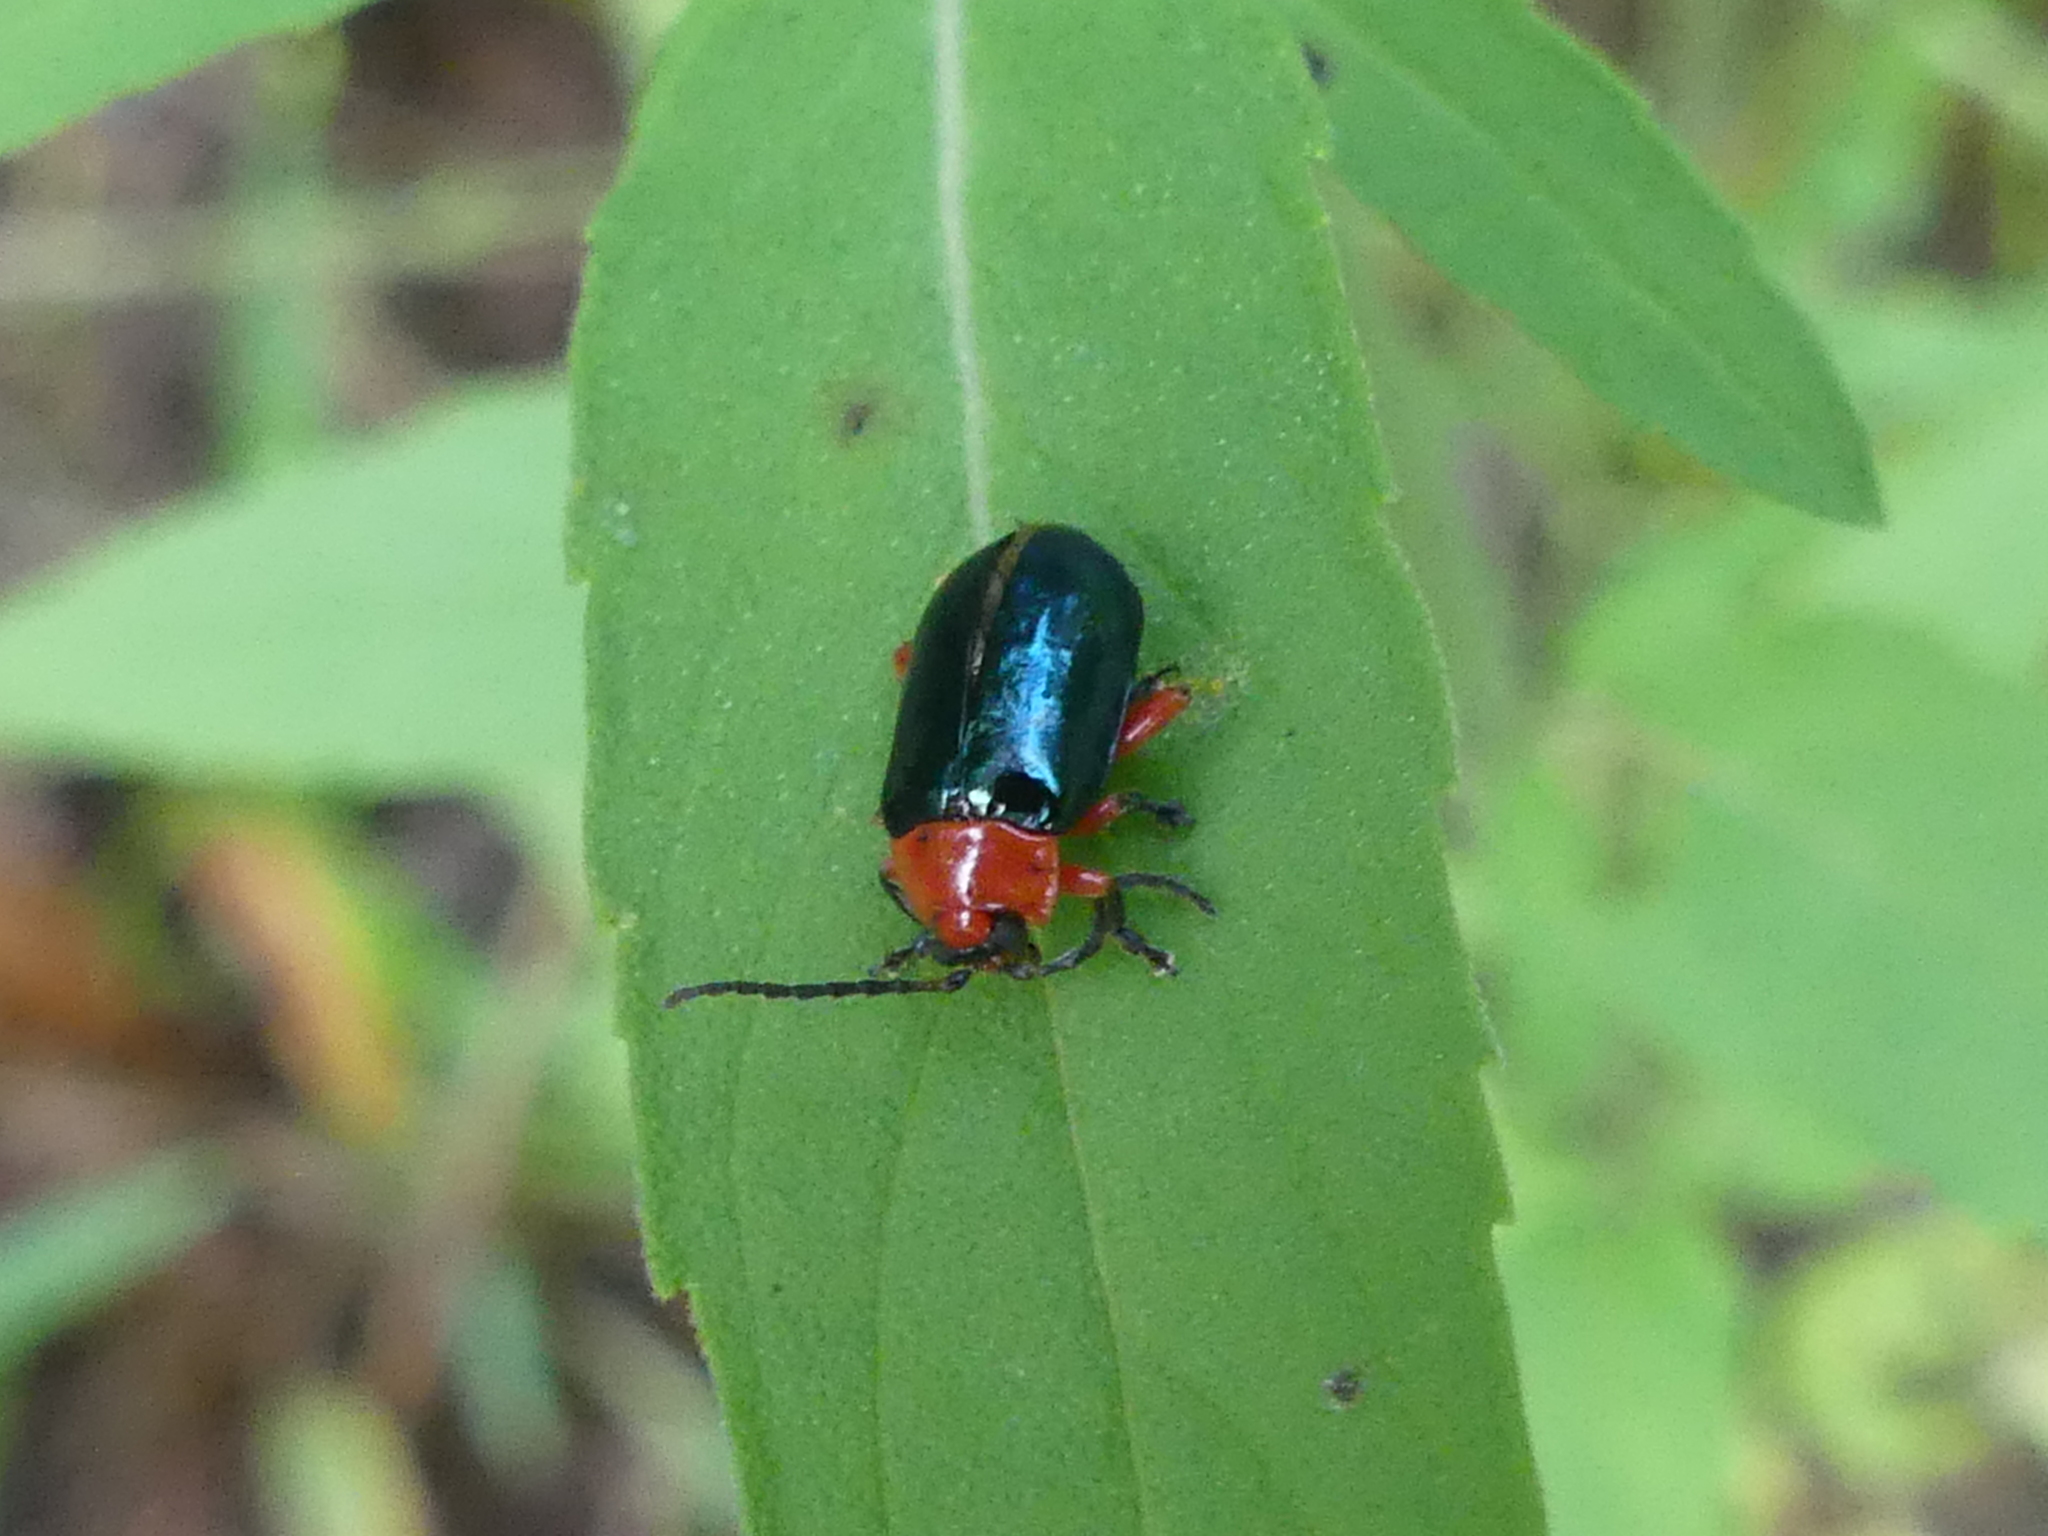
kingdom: Animalia
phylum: Arthropoda
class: Insecta
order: Coleoptera
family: Chrysomelidae
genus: Asphaera
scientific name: Asphaera lustrans
